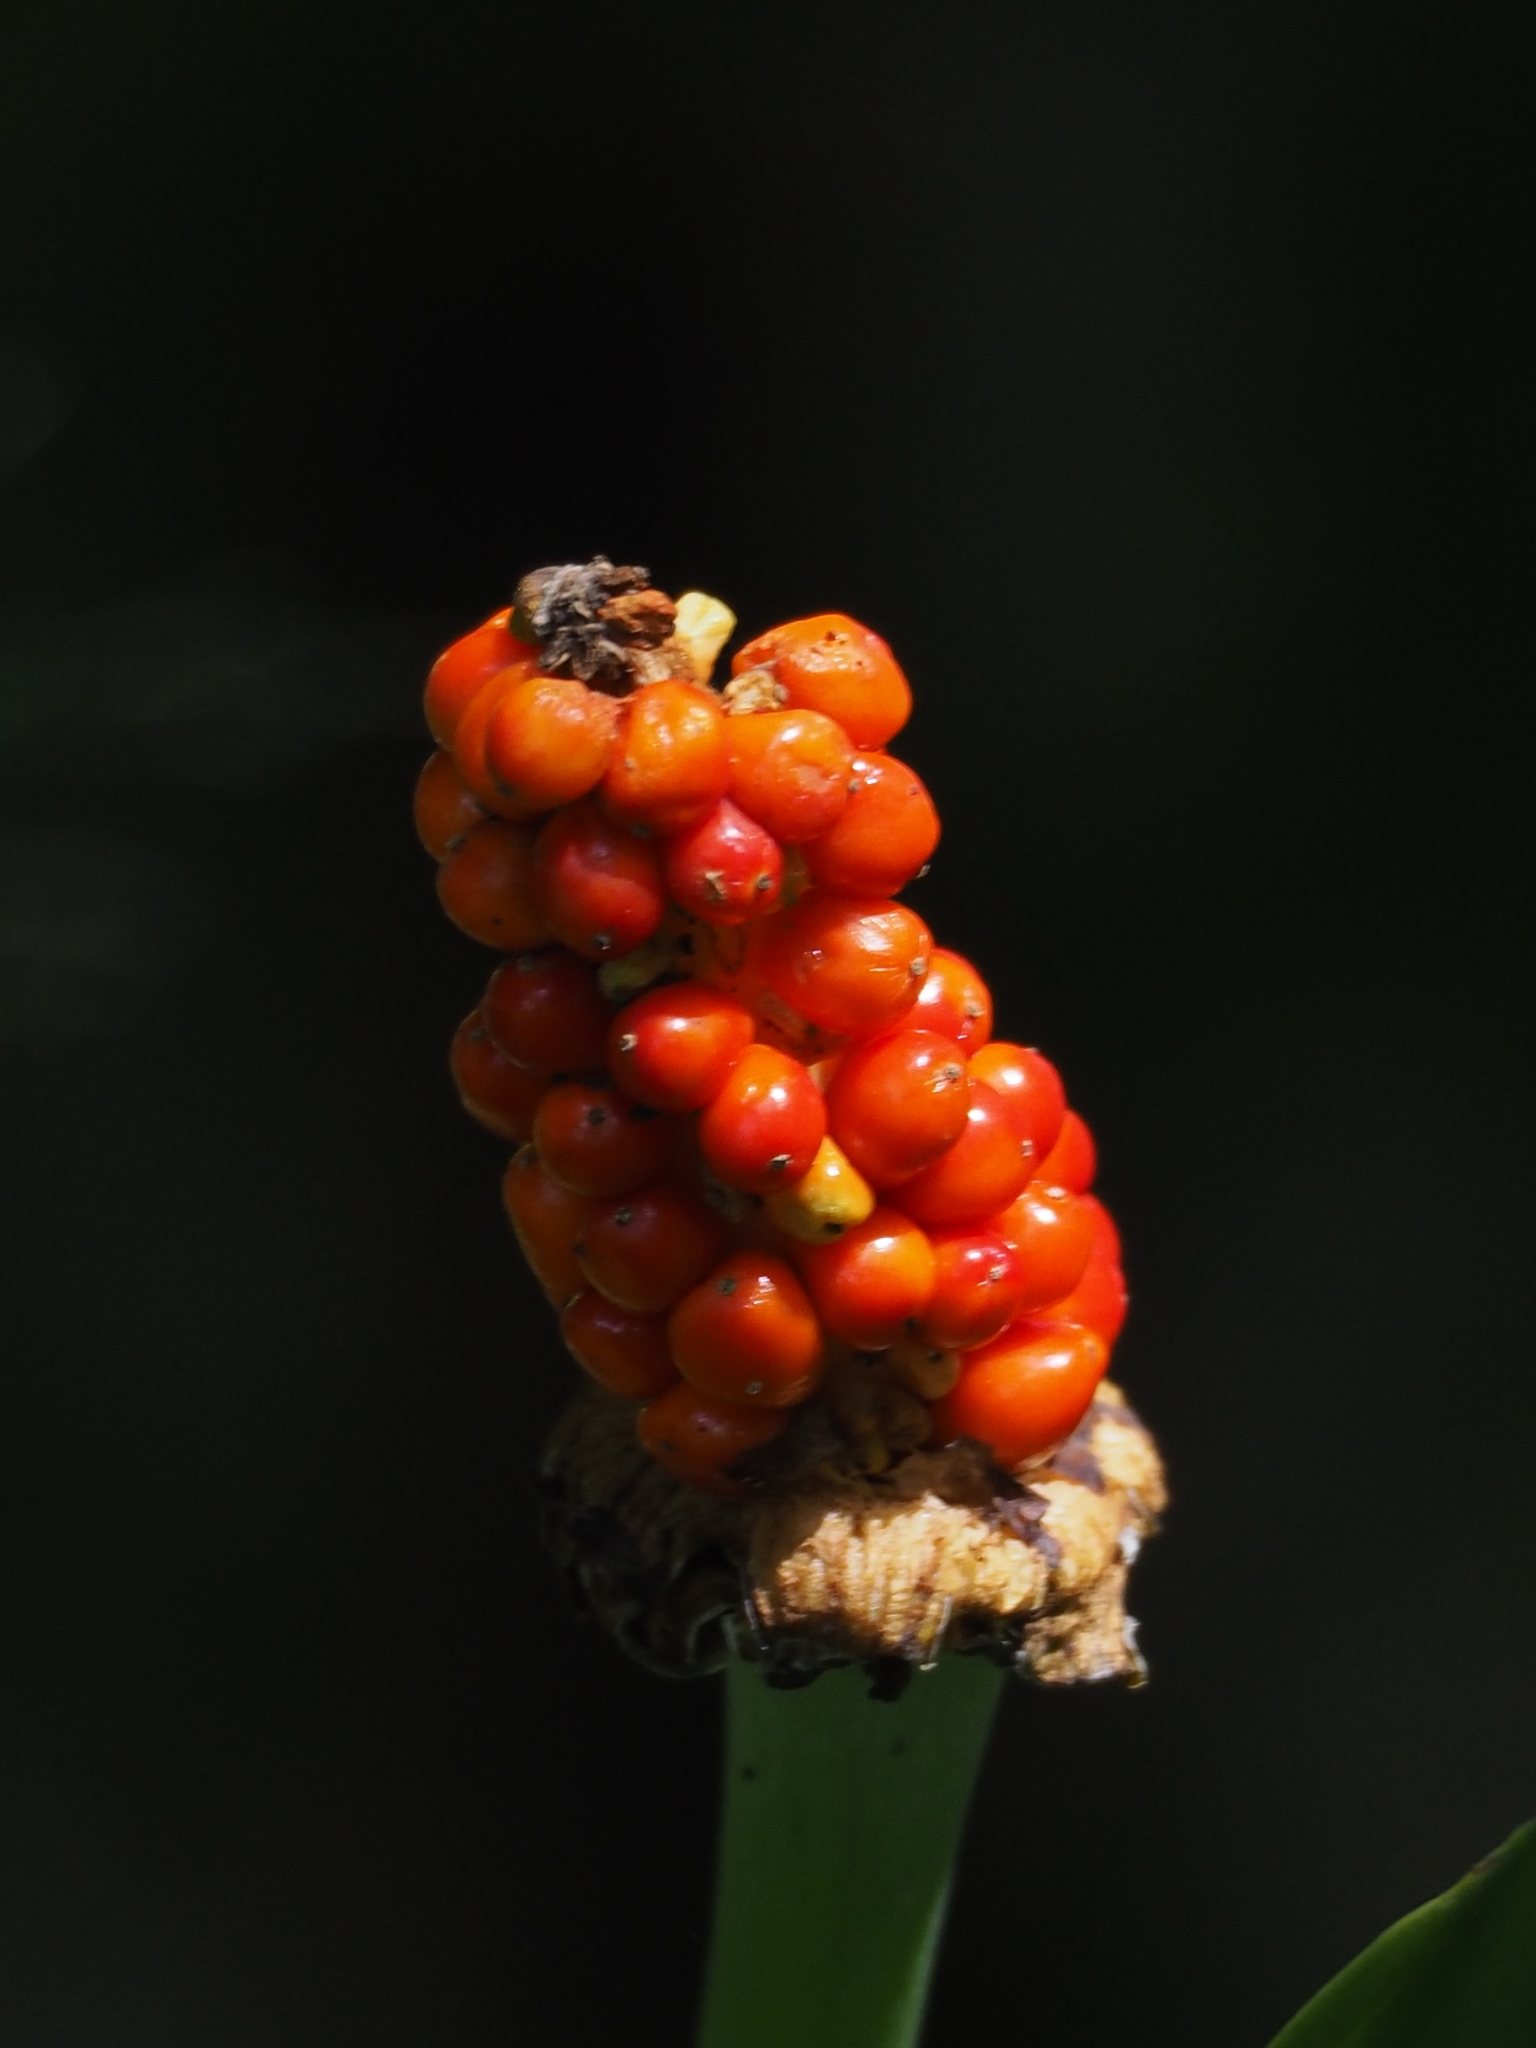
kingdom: Plantae
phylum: Tracheophyta
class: Liliopsida
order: Alismatales
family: Araceae
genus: Alocasia
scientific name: Alocasia odora
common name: Asian taro
